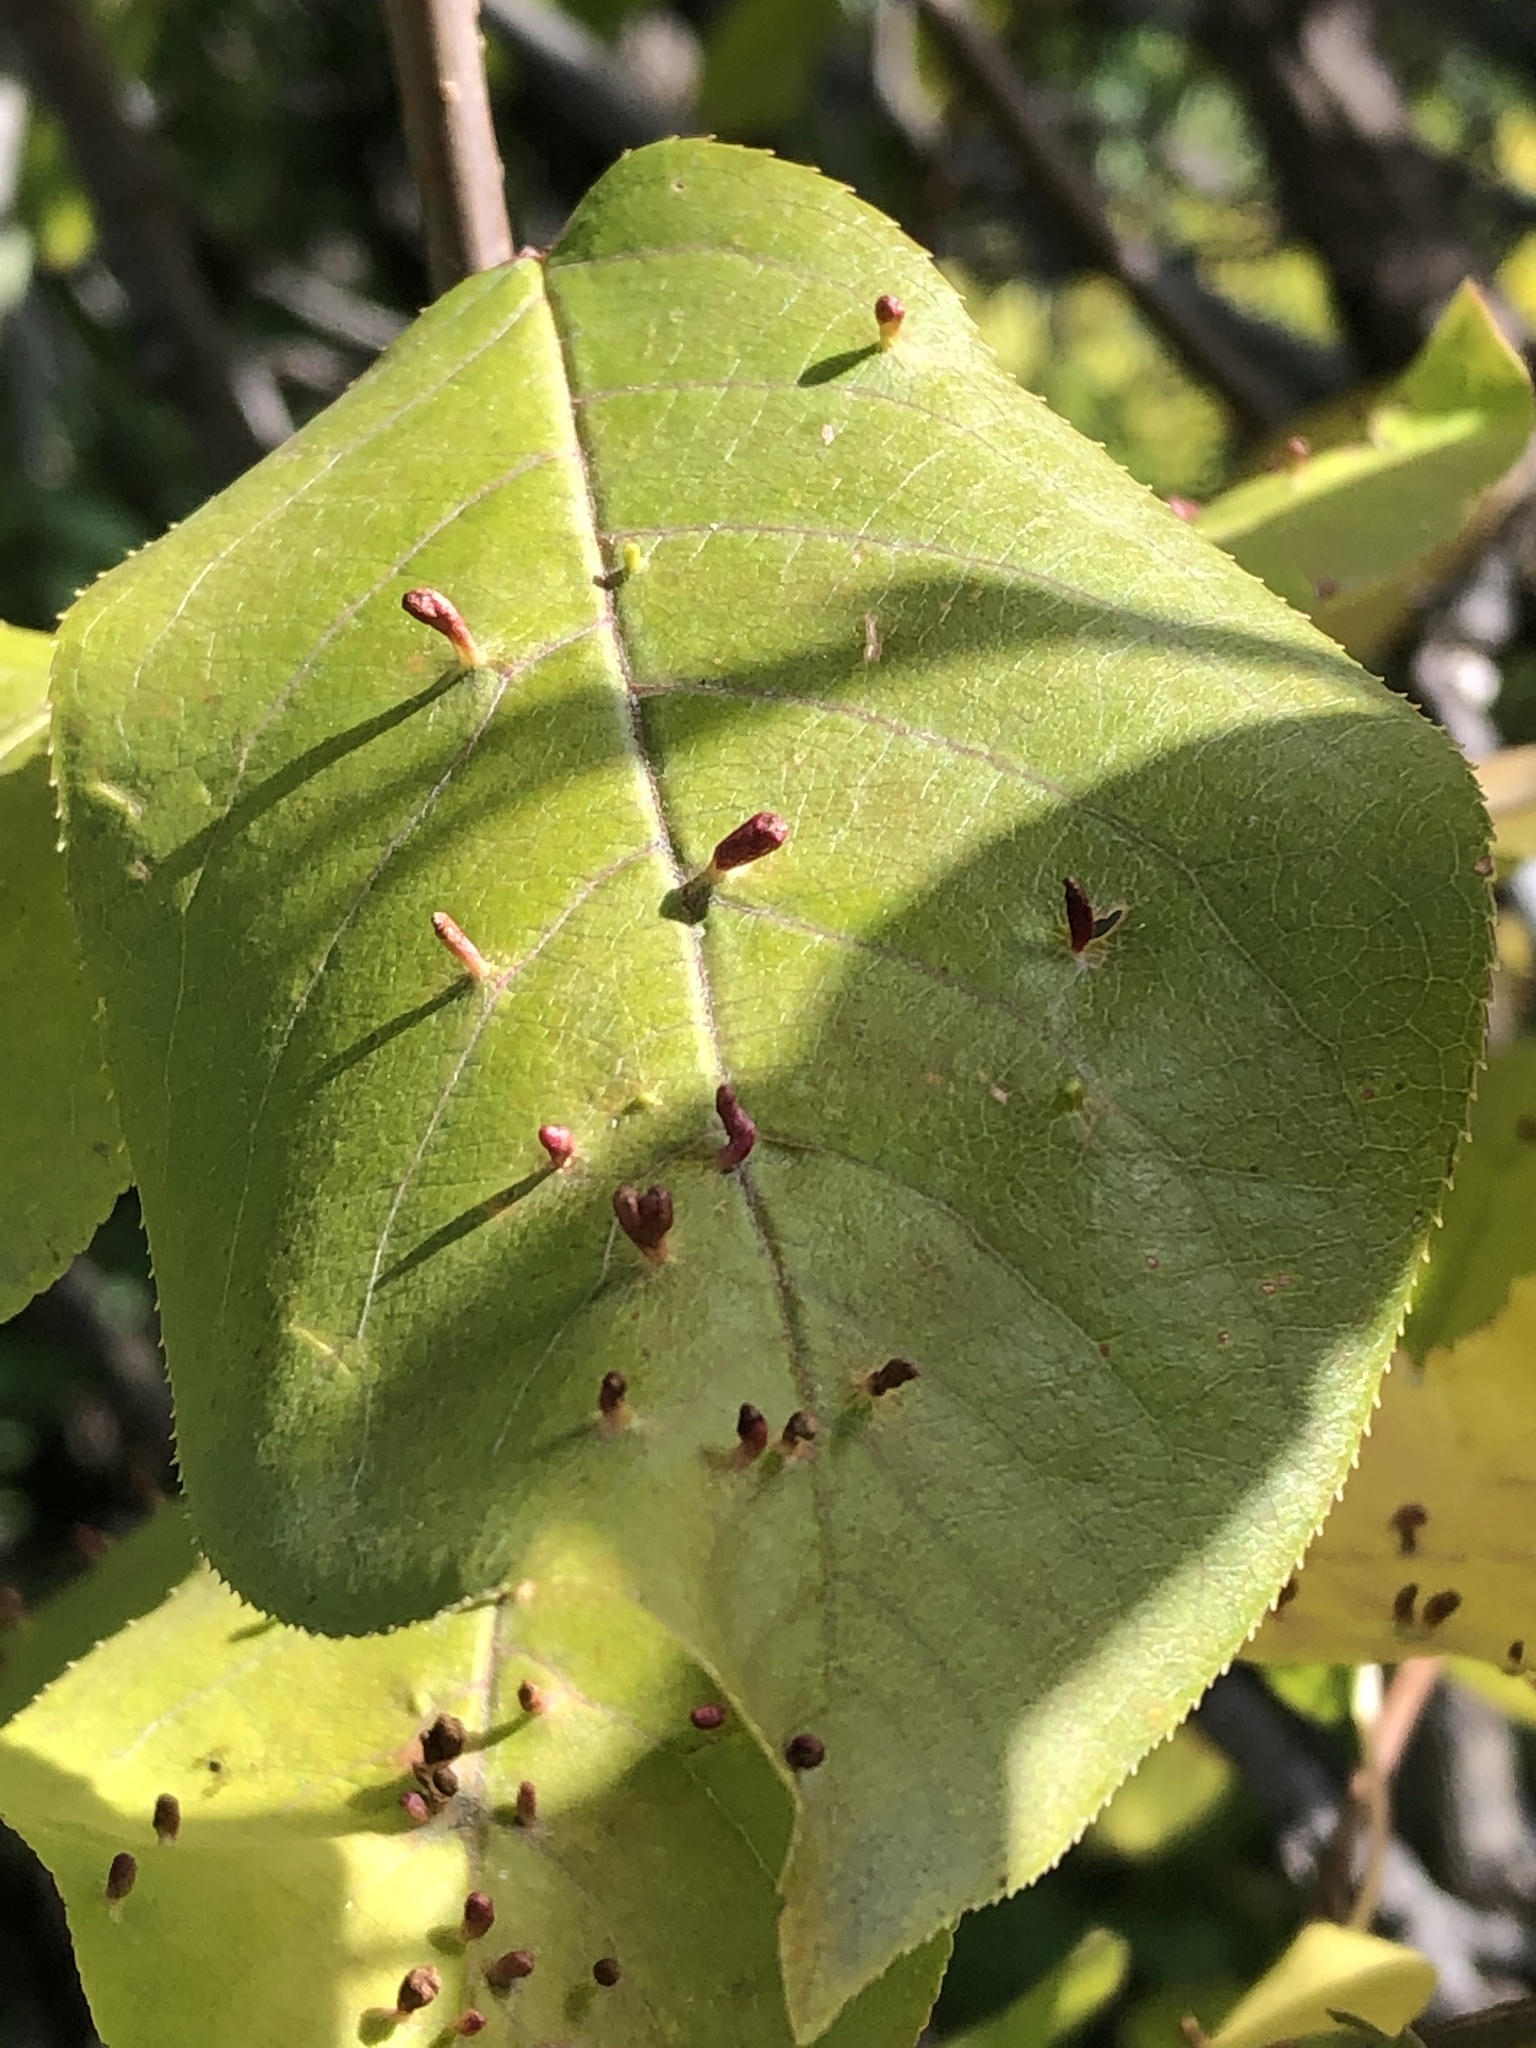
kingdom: Animalia
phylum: Arthropoda
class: Arachnida
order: Trombidiformes
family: Eriophyidae
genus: Eriophyes
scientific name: Eriophyes emarginatae
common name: Plum leaf gall mite
